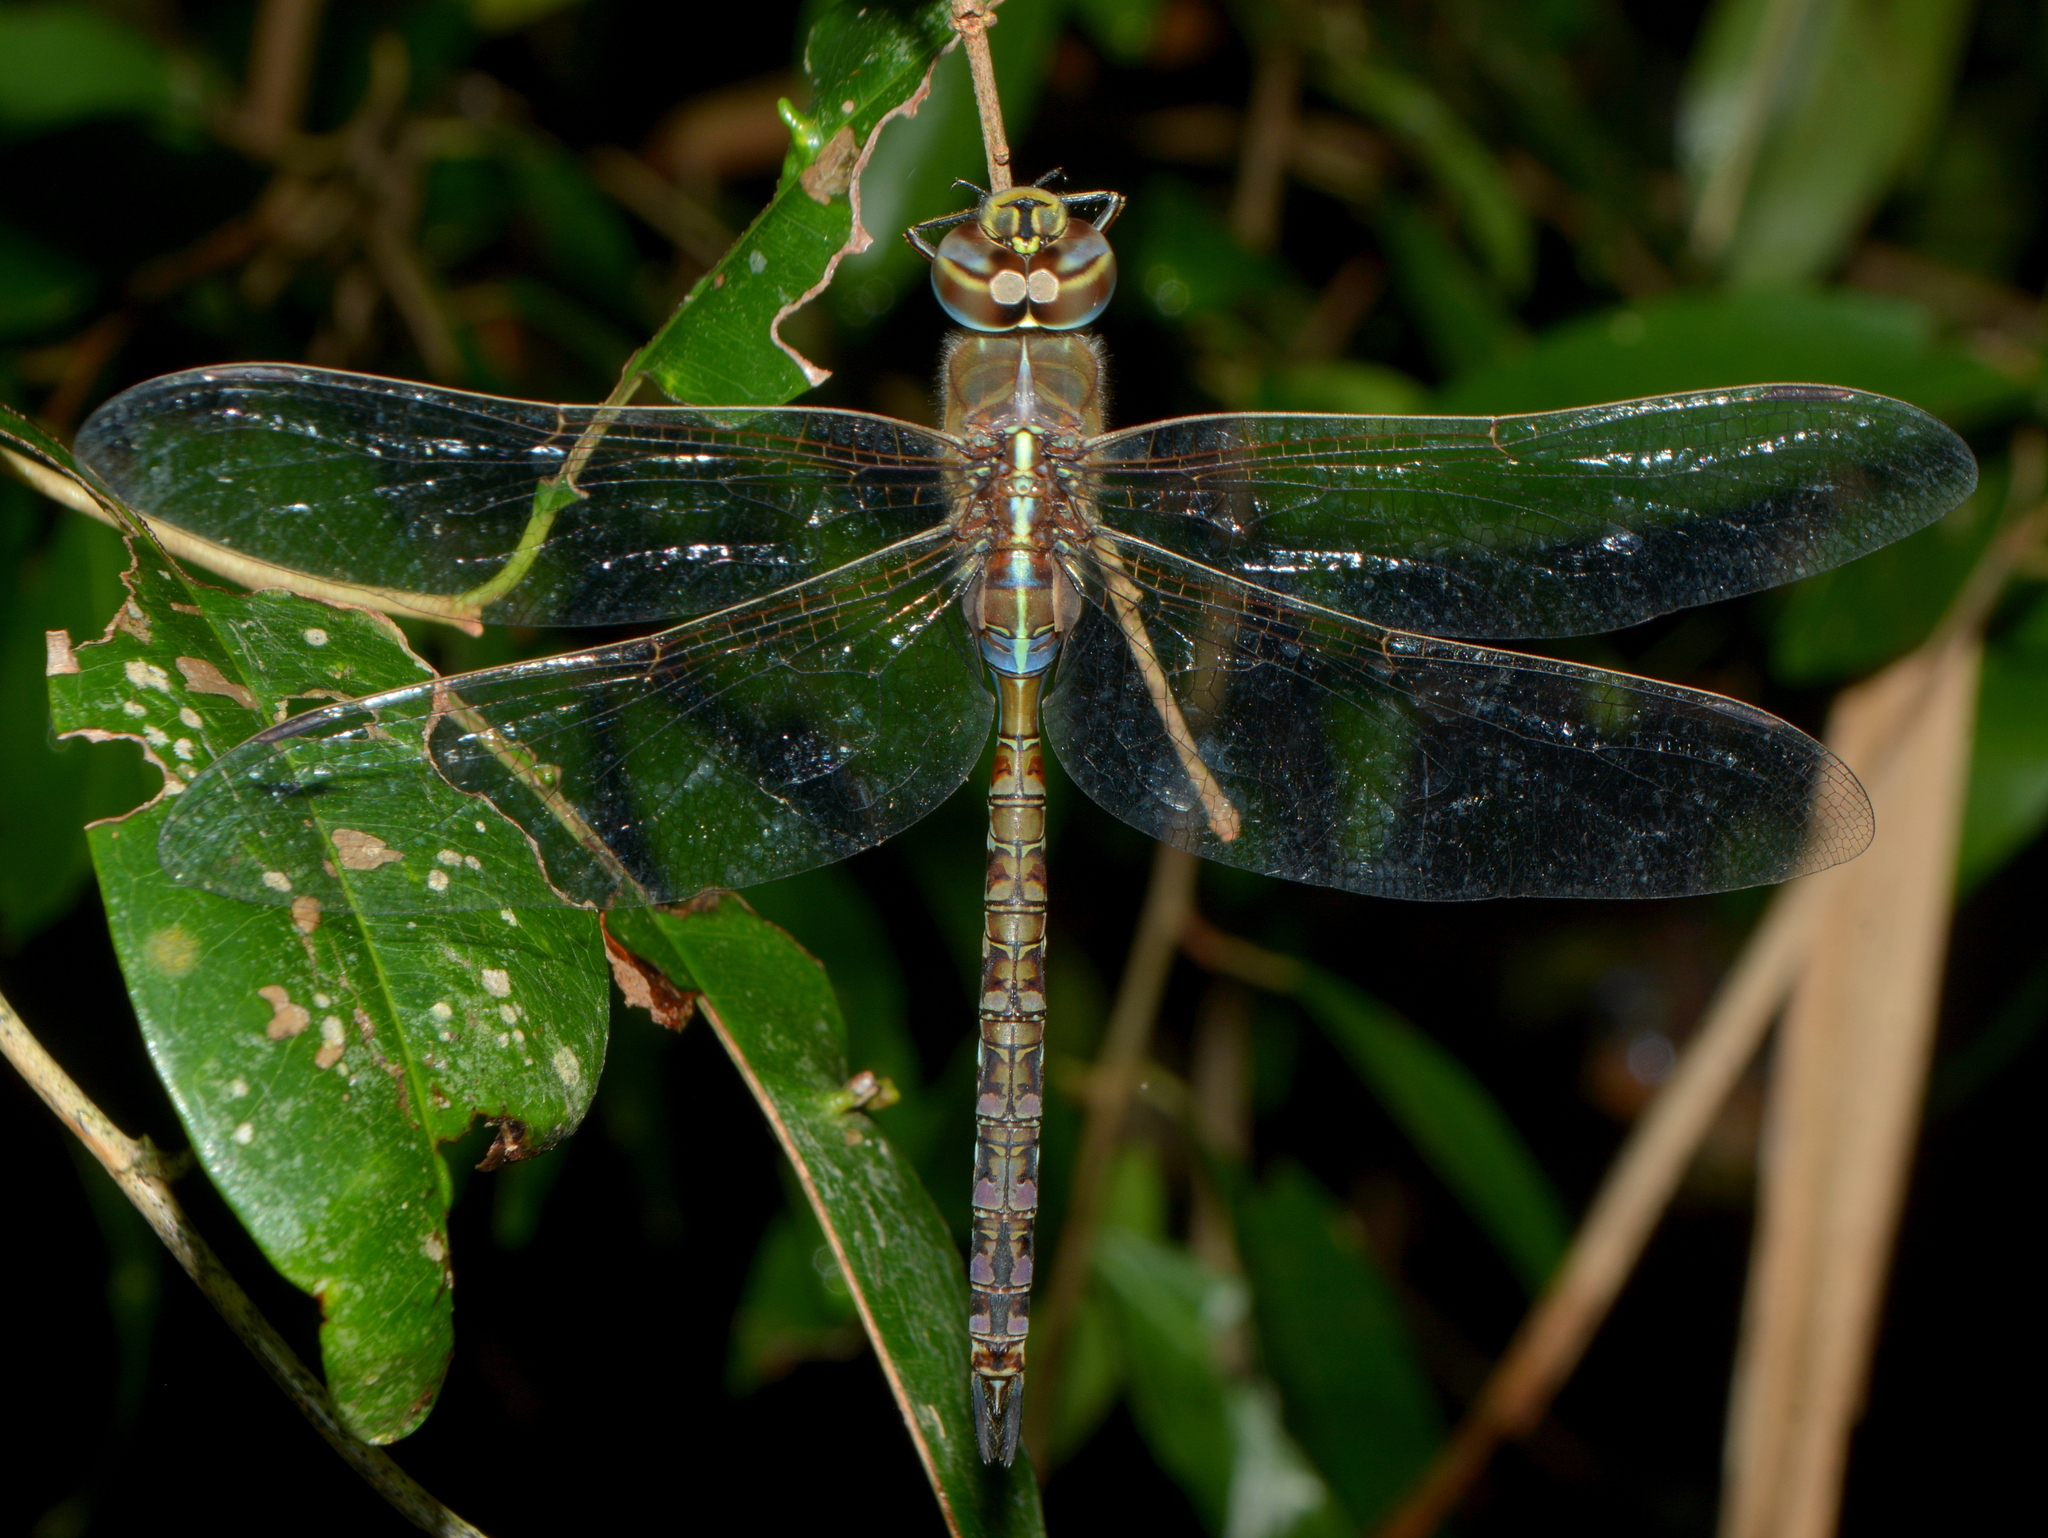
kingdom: Animalia
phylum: Arthropoda
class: Insecta
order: Odonata
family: Aeshnidae
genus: Rhionaeschna
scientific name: Rhionaeschna bonariensis
